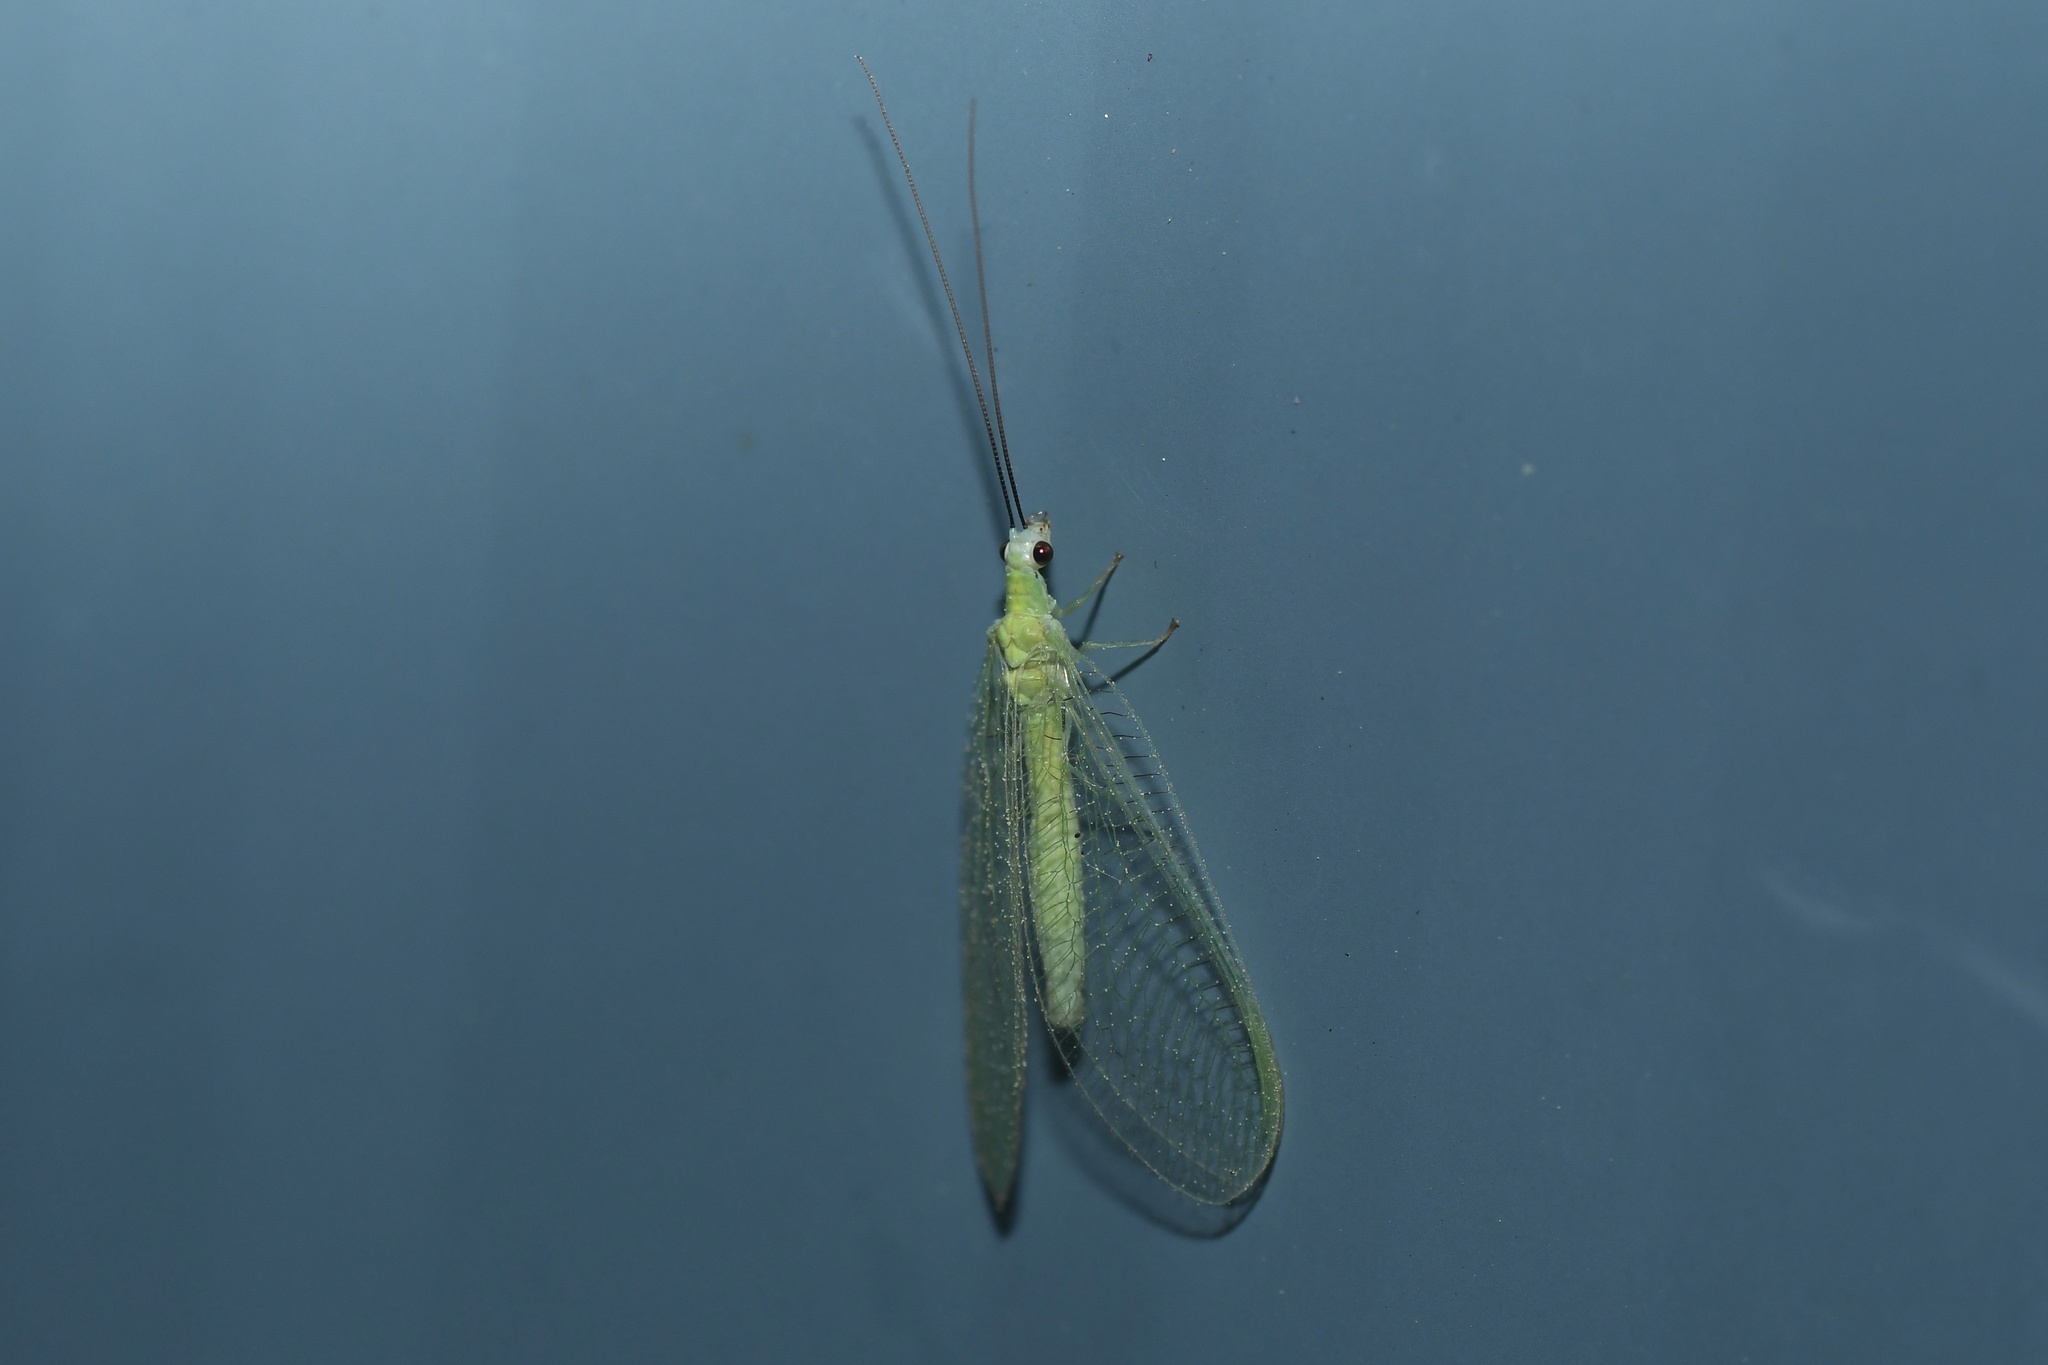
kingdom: Animalia
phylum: Arthropoda
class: Insecta
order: Neuroptera
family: Chrysopidae
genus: Chrysopa
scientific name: Chrysopa nigricornis
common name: Black-horned green lacewing
